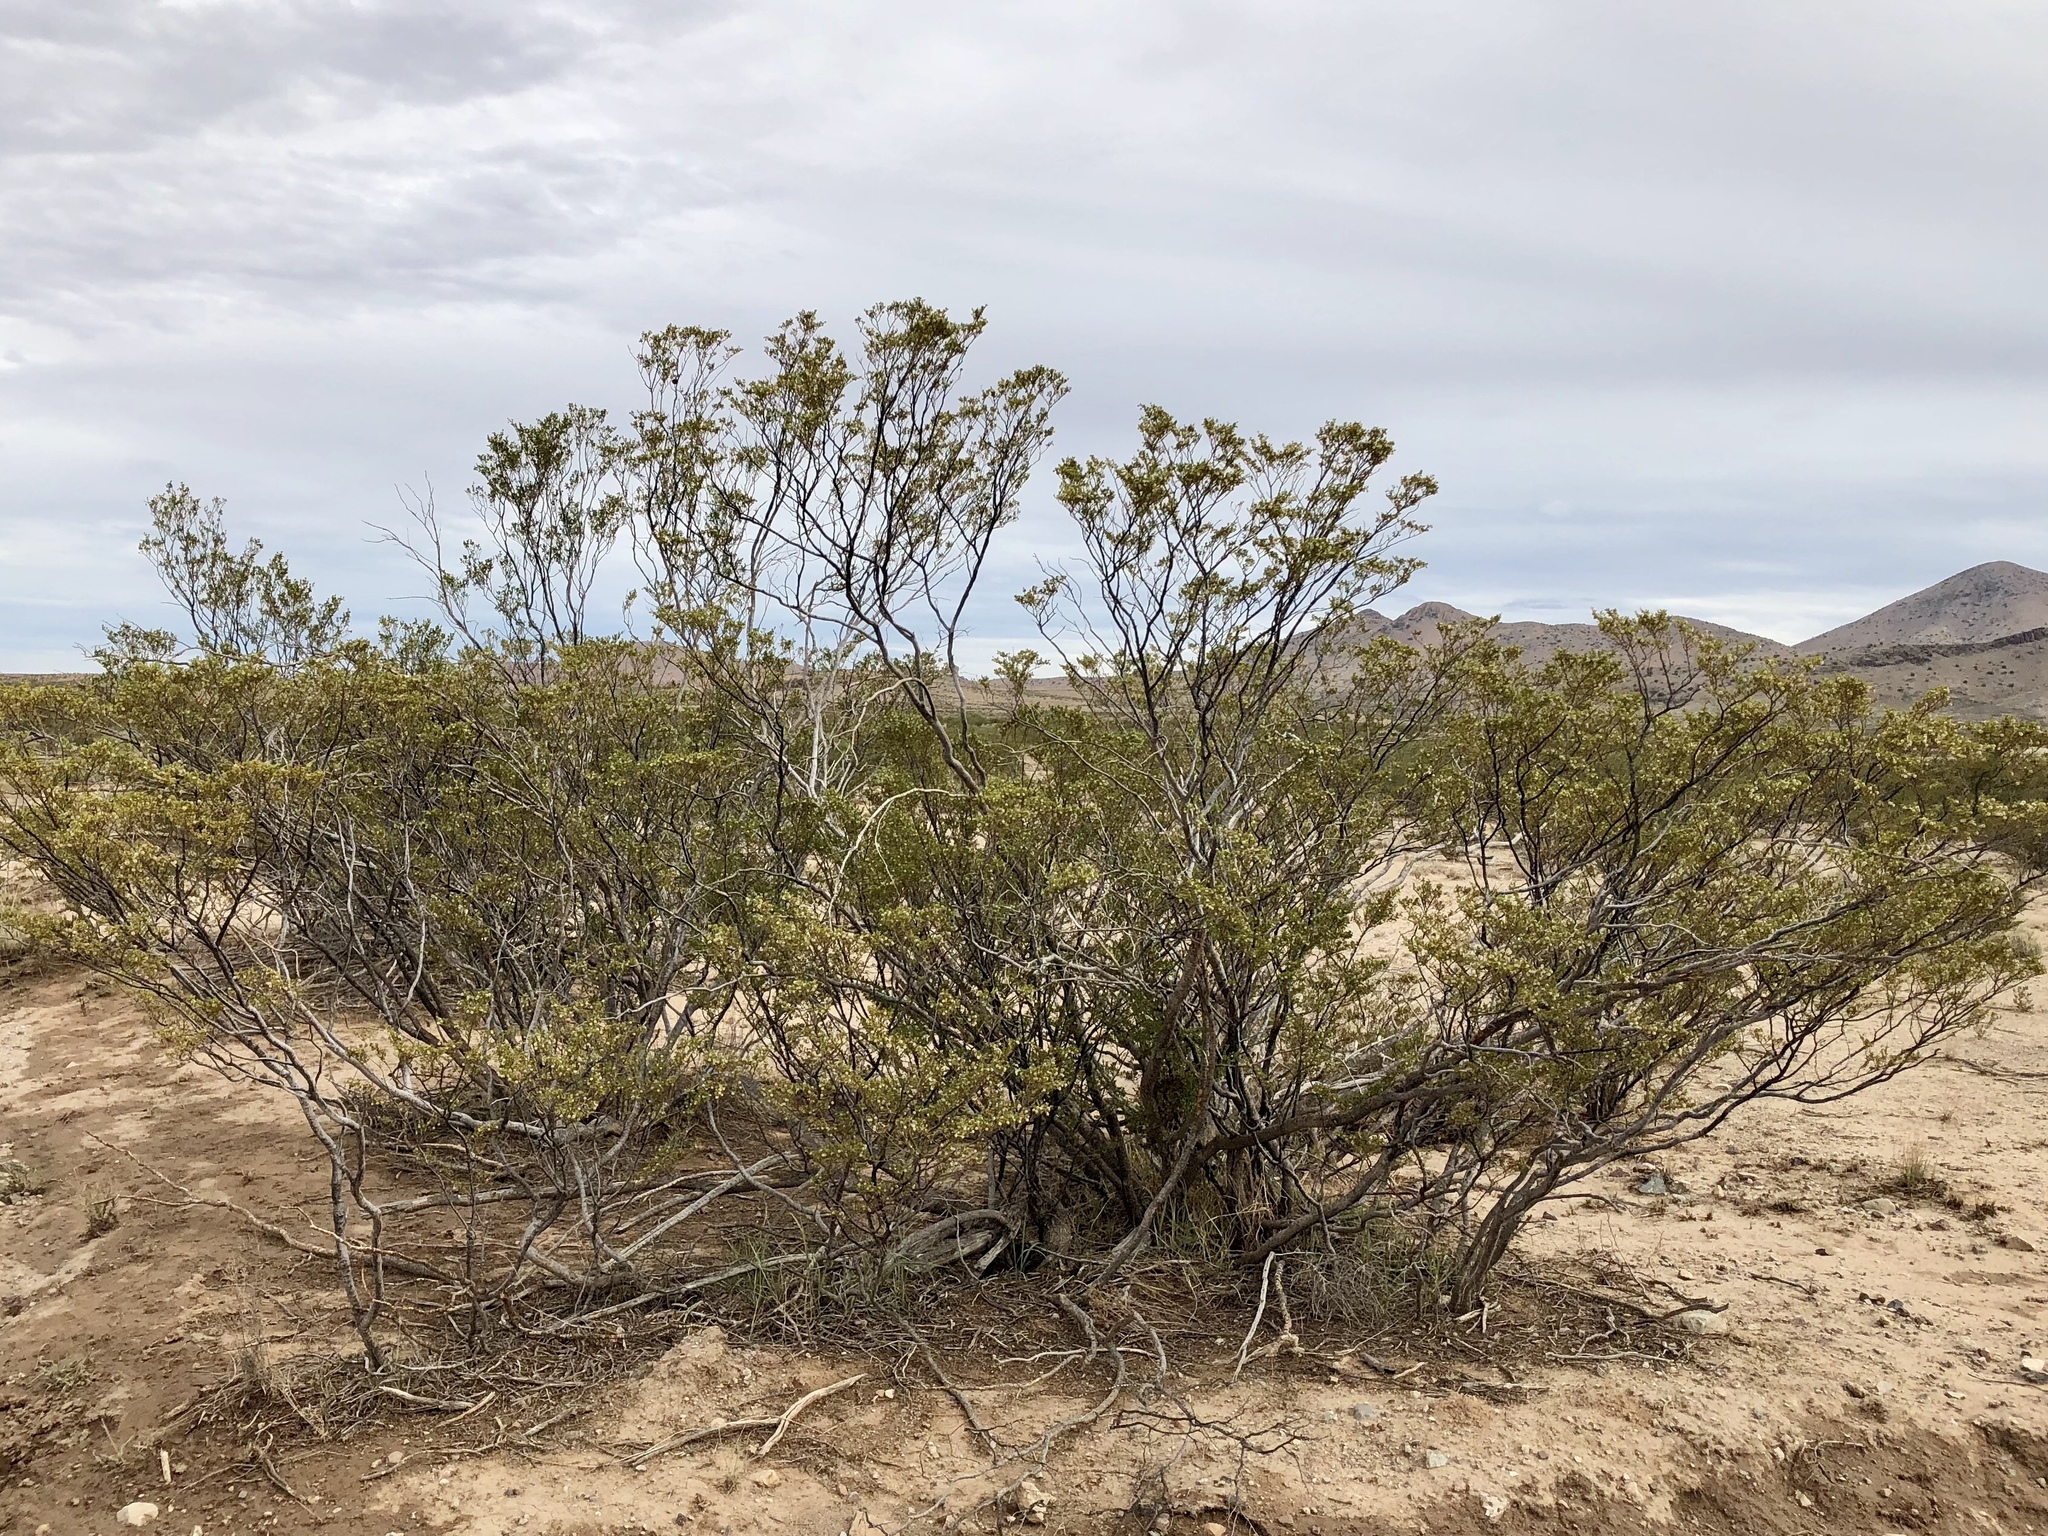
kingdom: Plantae
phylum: Tracheophyta
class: Magnoliopsida
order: Zygophyllales
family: Zygophyllaceae
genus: Larrea
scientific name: Larrea tridentata
